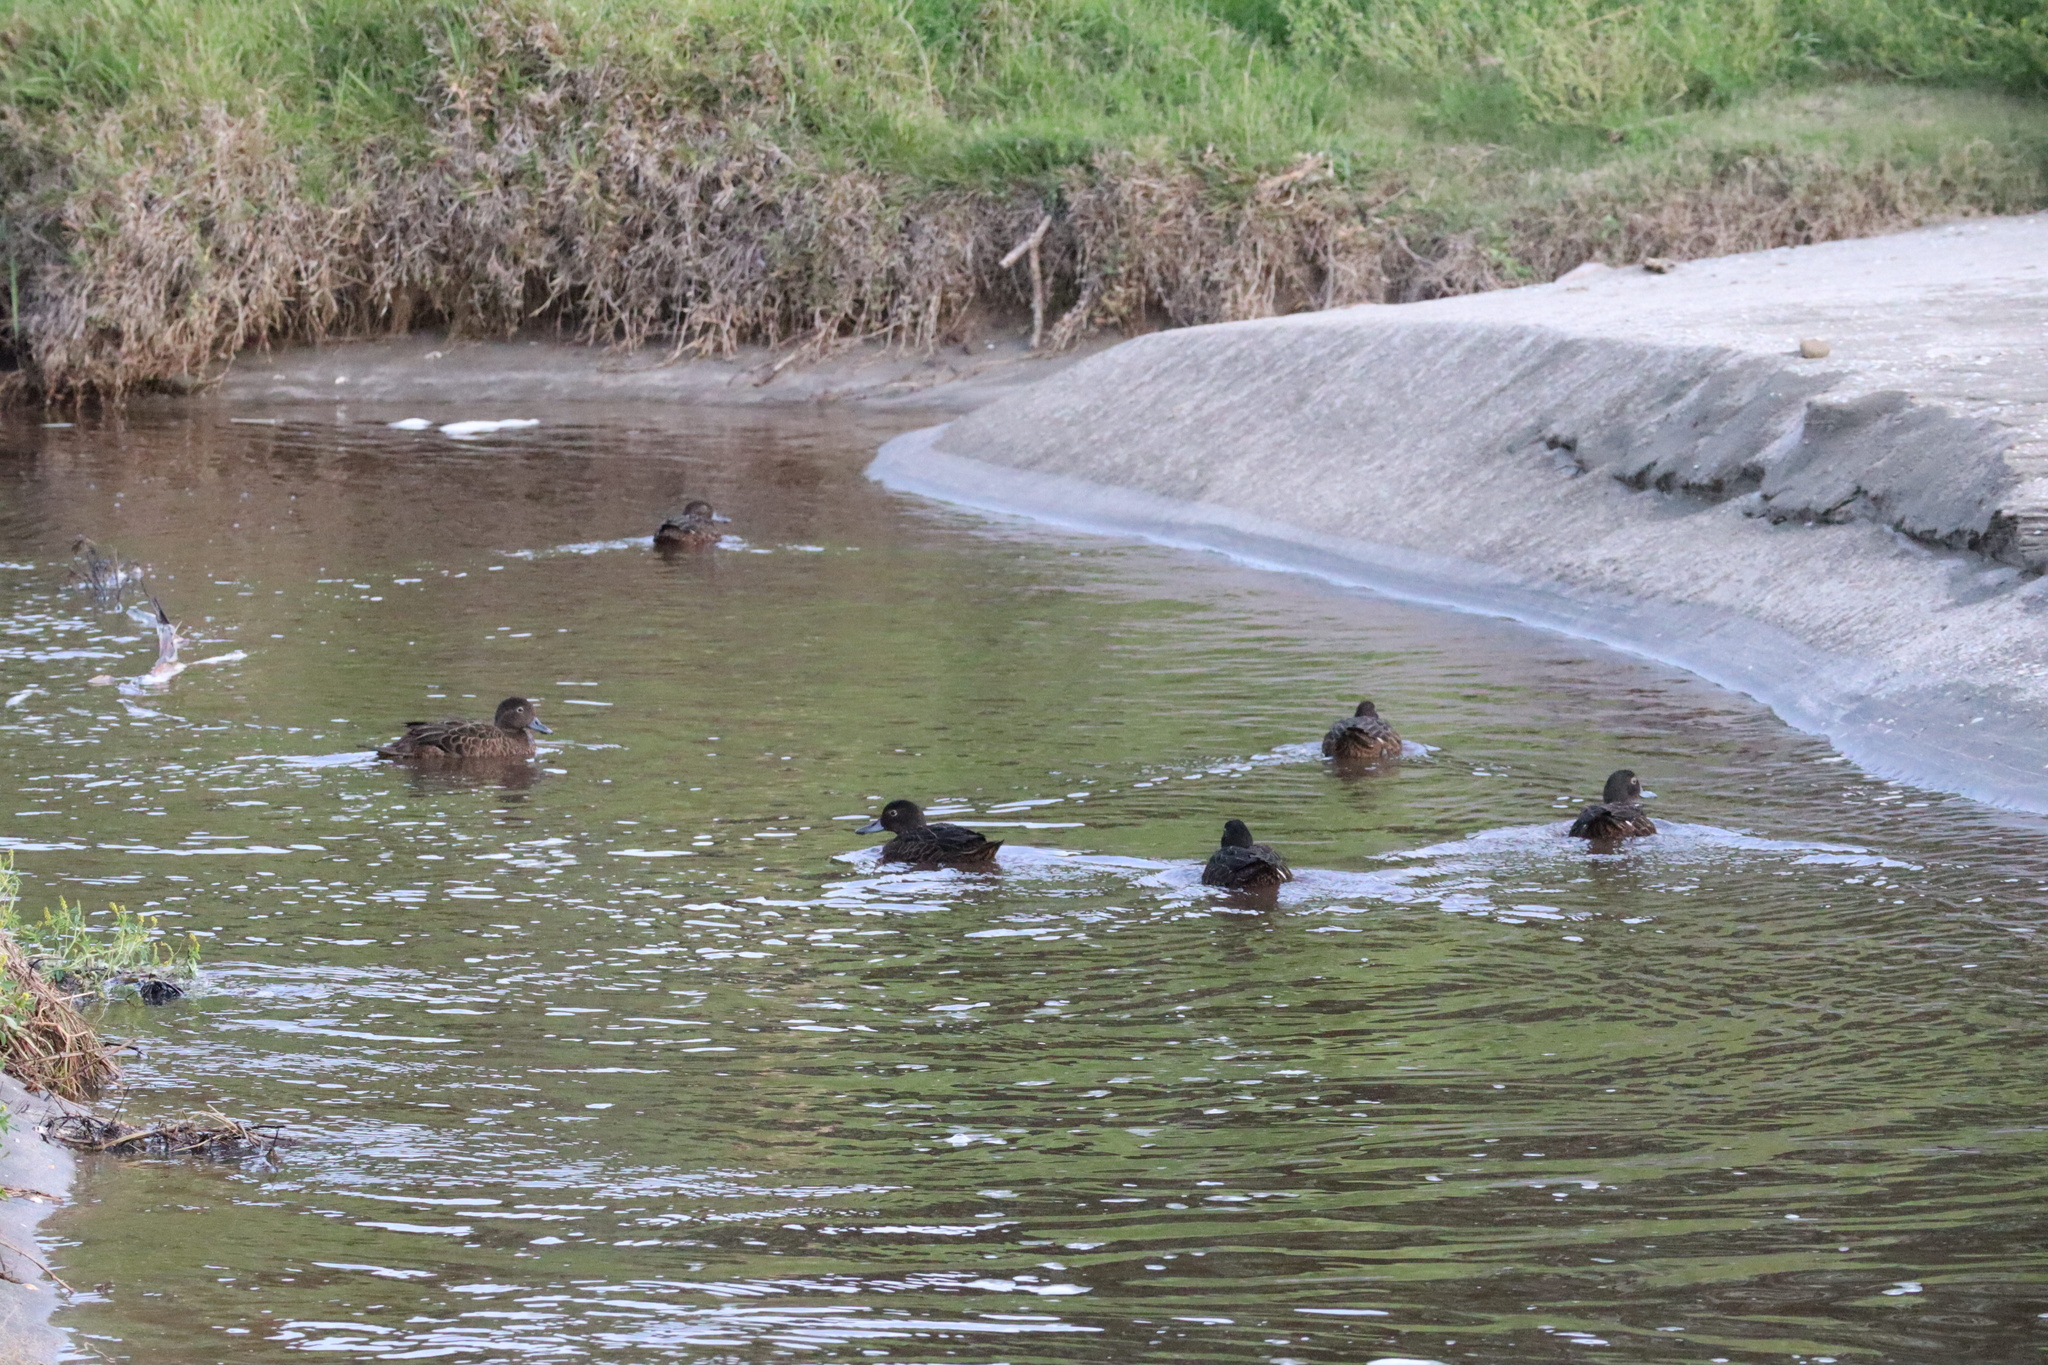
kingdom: Animalia
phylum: Chordata
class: Aves
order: Anseriformes
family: Anatidae
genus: Anas
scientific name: Anas chlorotis
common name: Brown teal
